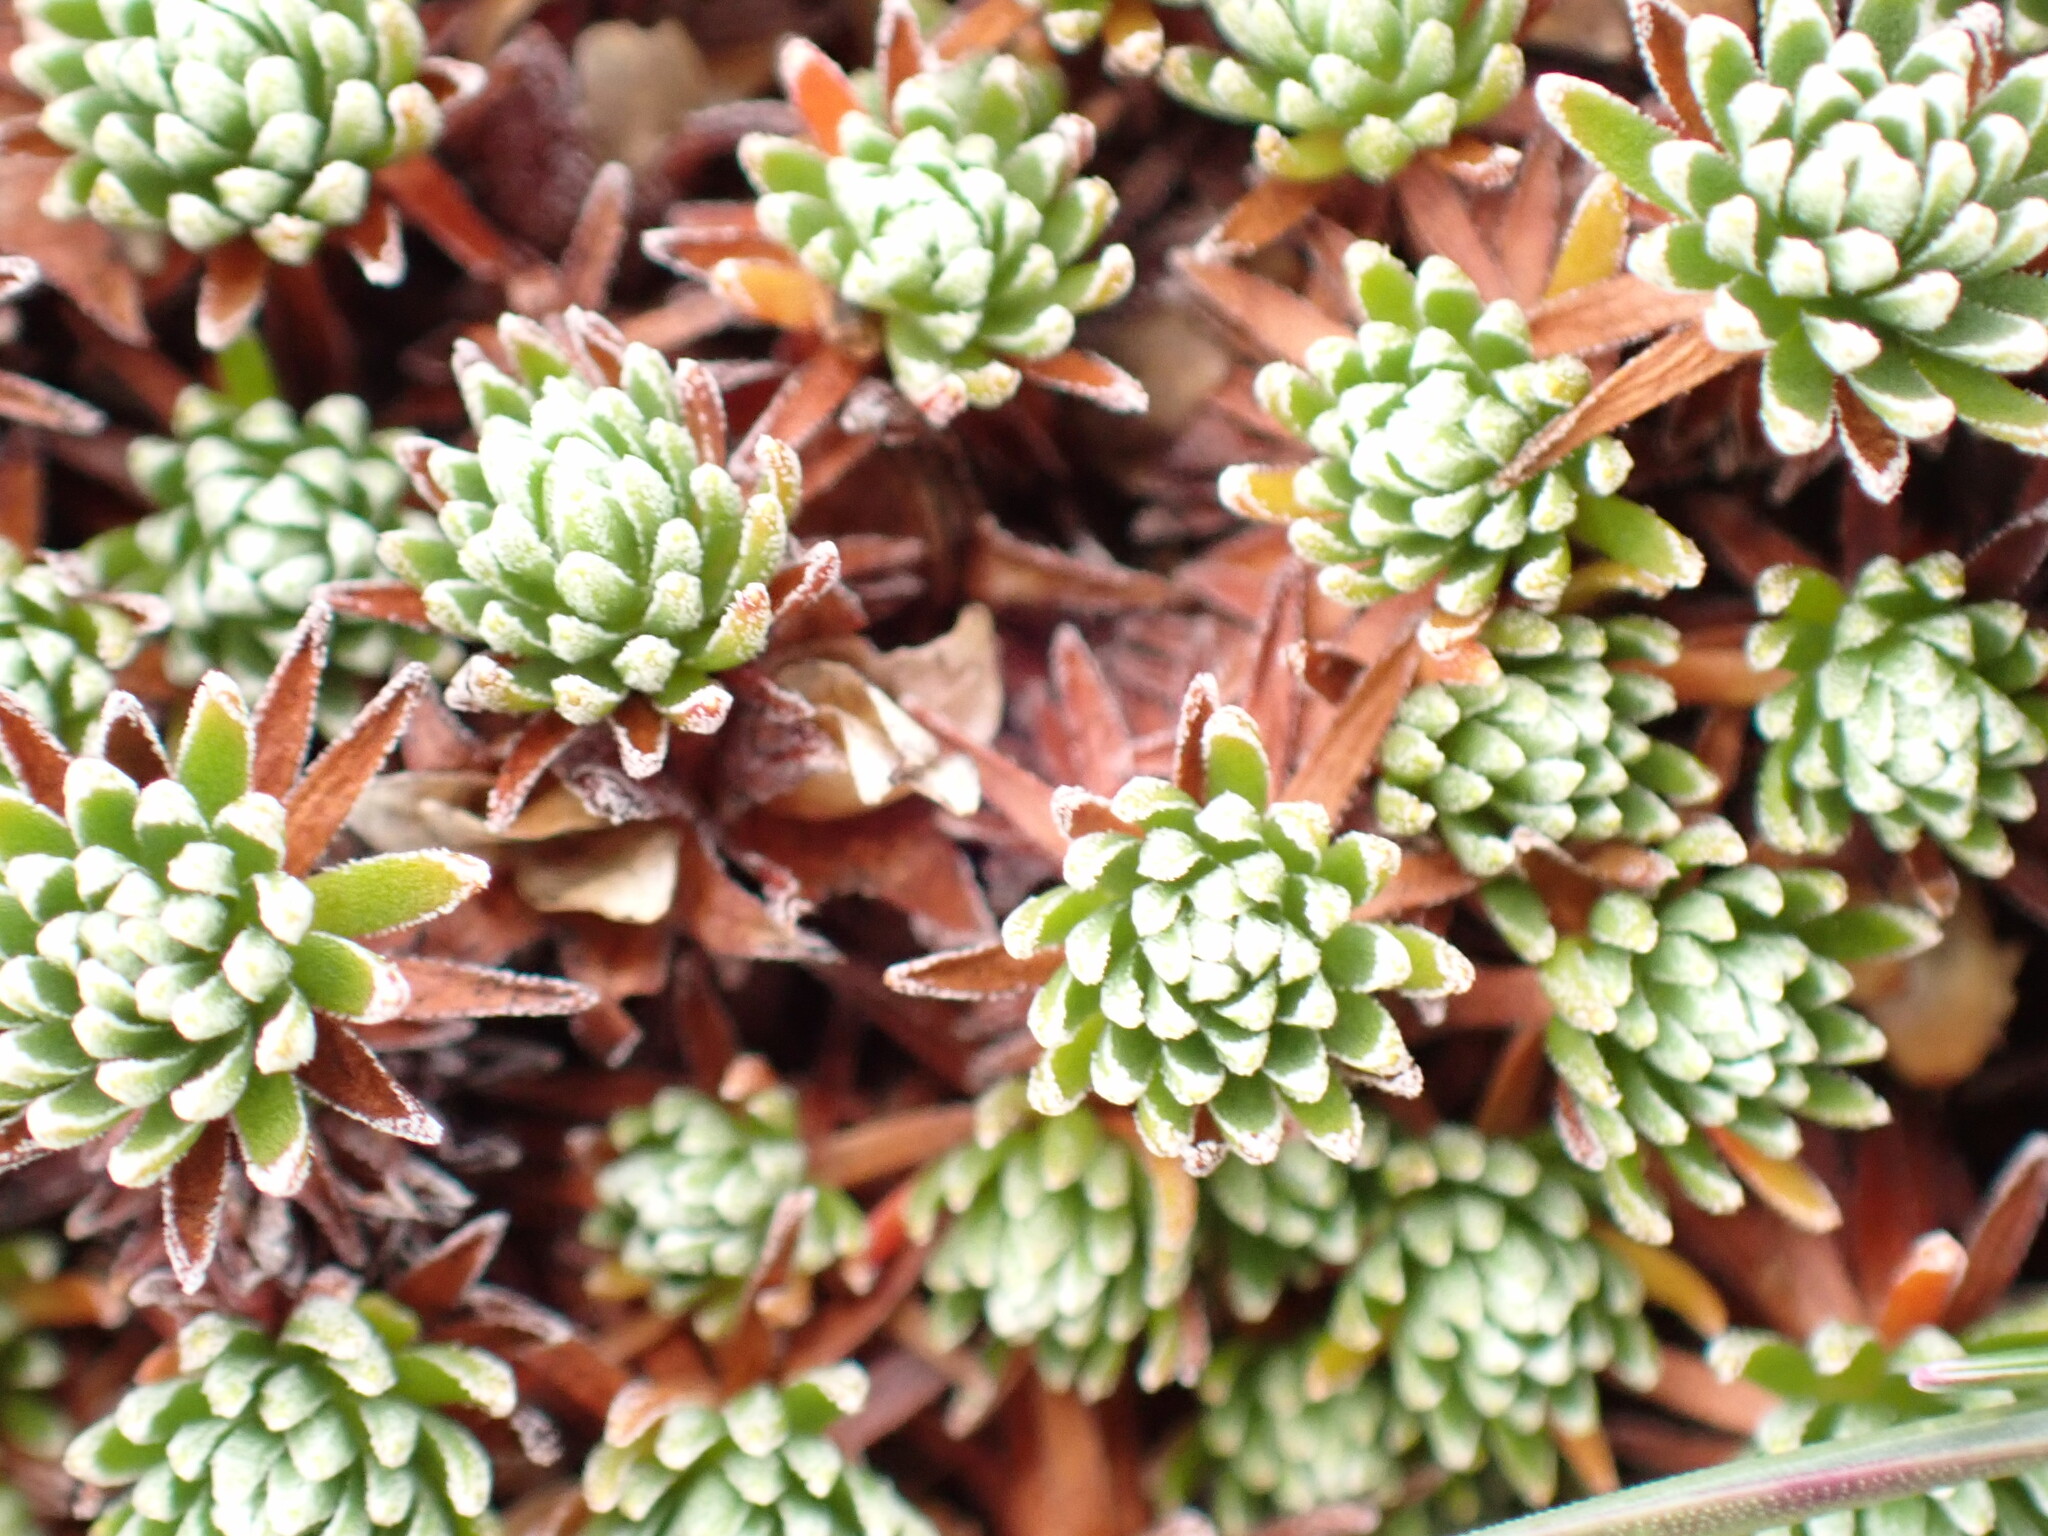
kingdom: Plantae
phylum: Tracheophyta
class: Magnoliopsida
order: Ericales
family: Primulaceae
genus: Androsace
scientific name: Androsace vitaliana
